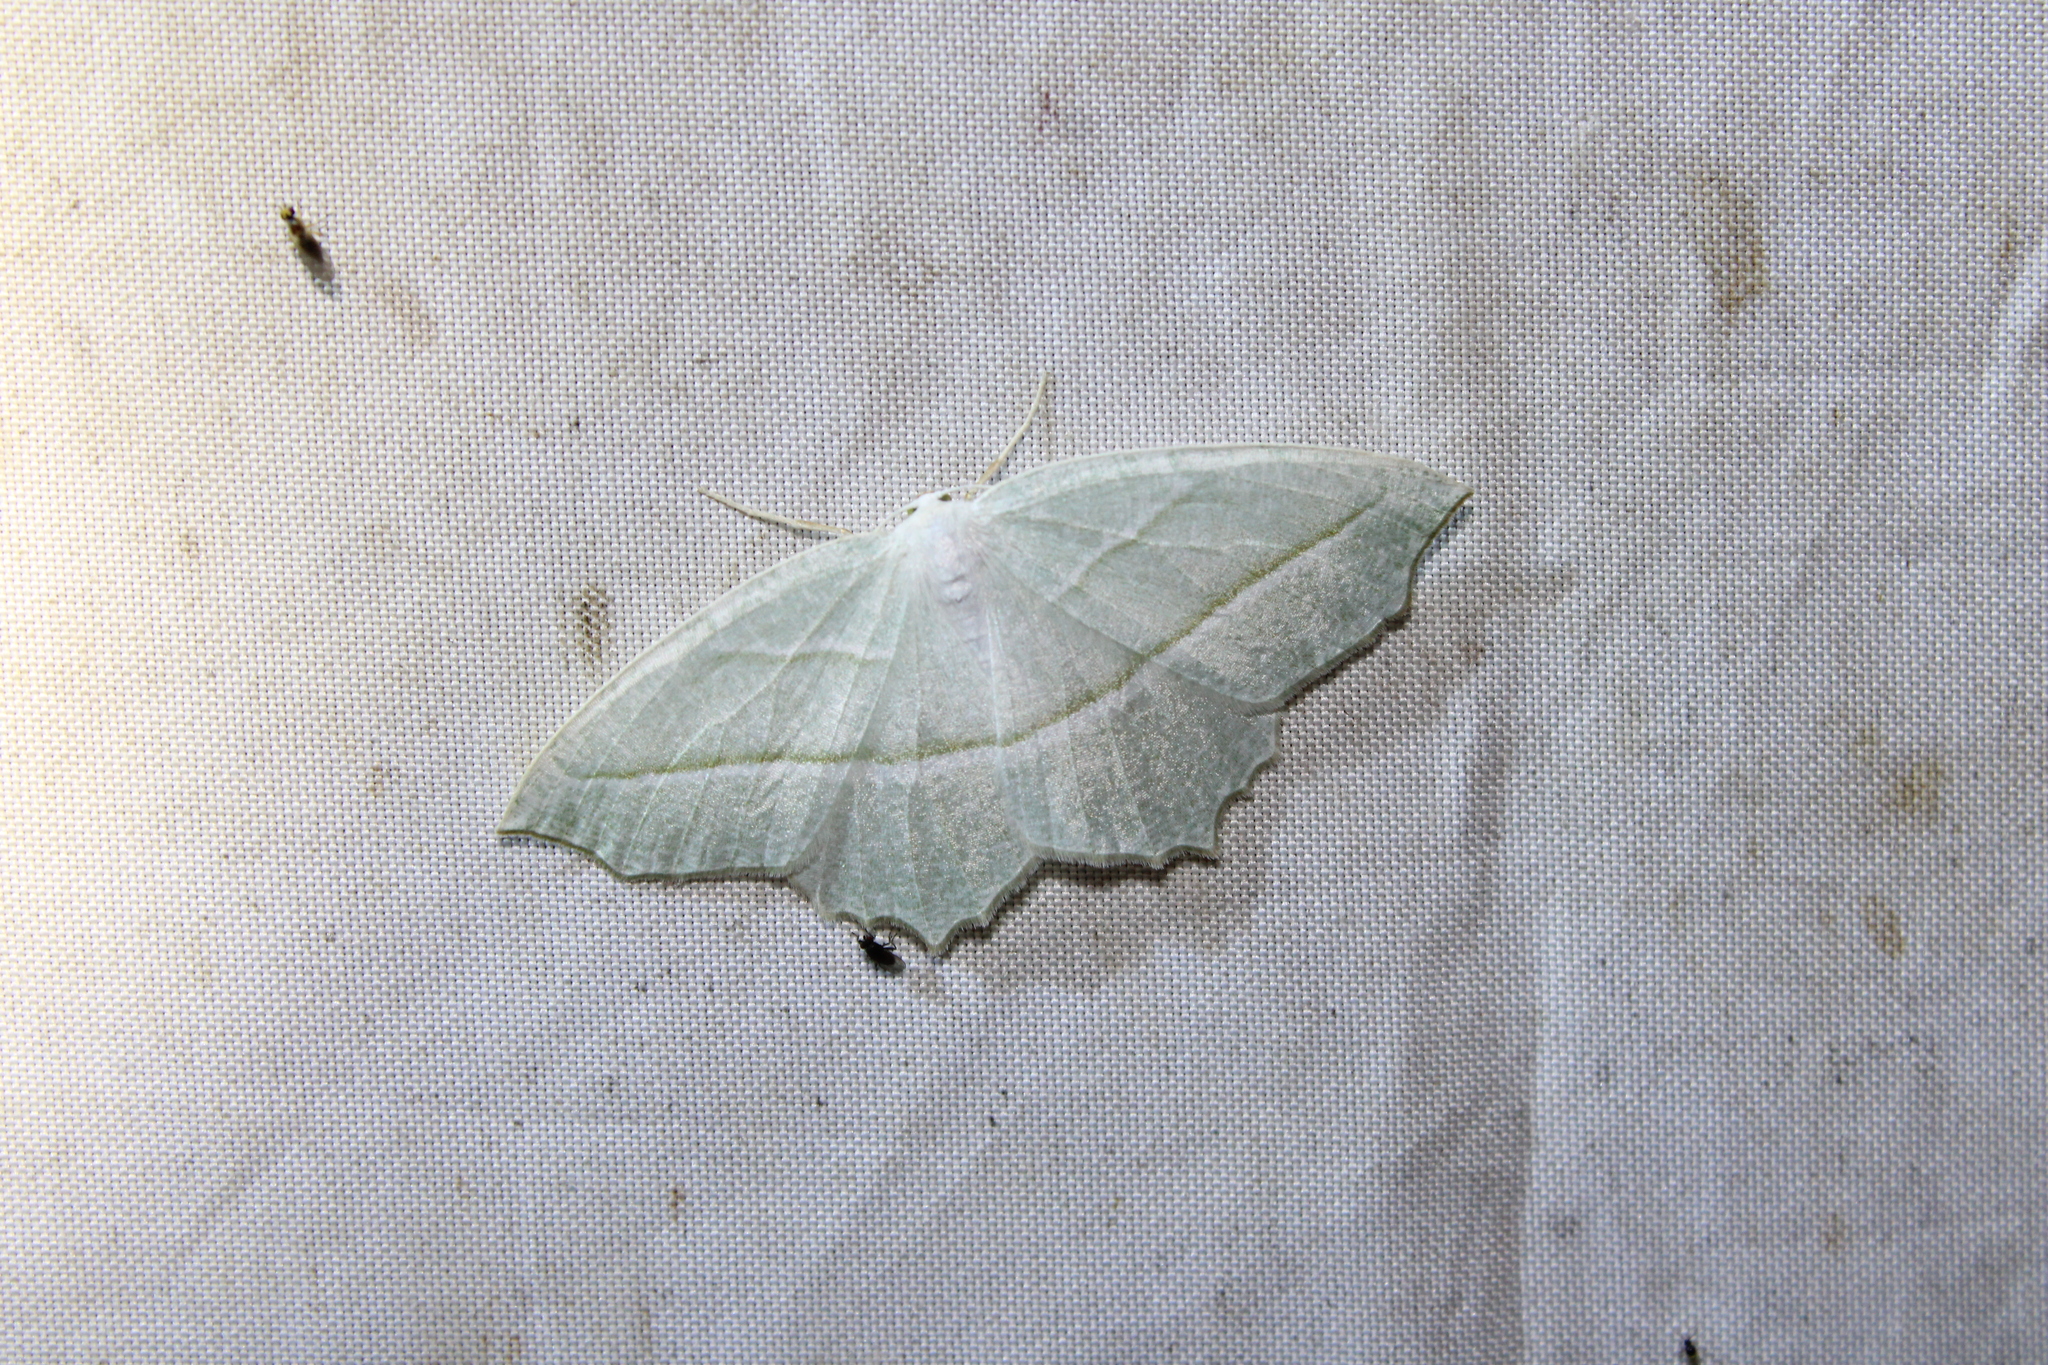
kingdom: Animalia
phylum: Arthropoda
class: Insecta
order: Lepidoptera
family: Geometridae
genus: Campaea
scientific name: Campaea perlata
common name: Fringed looper
